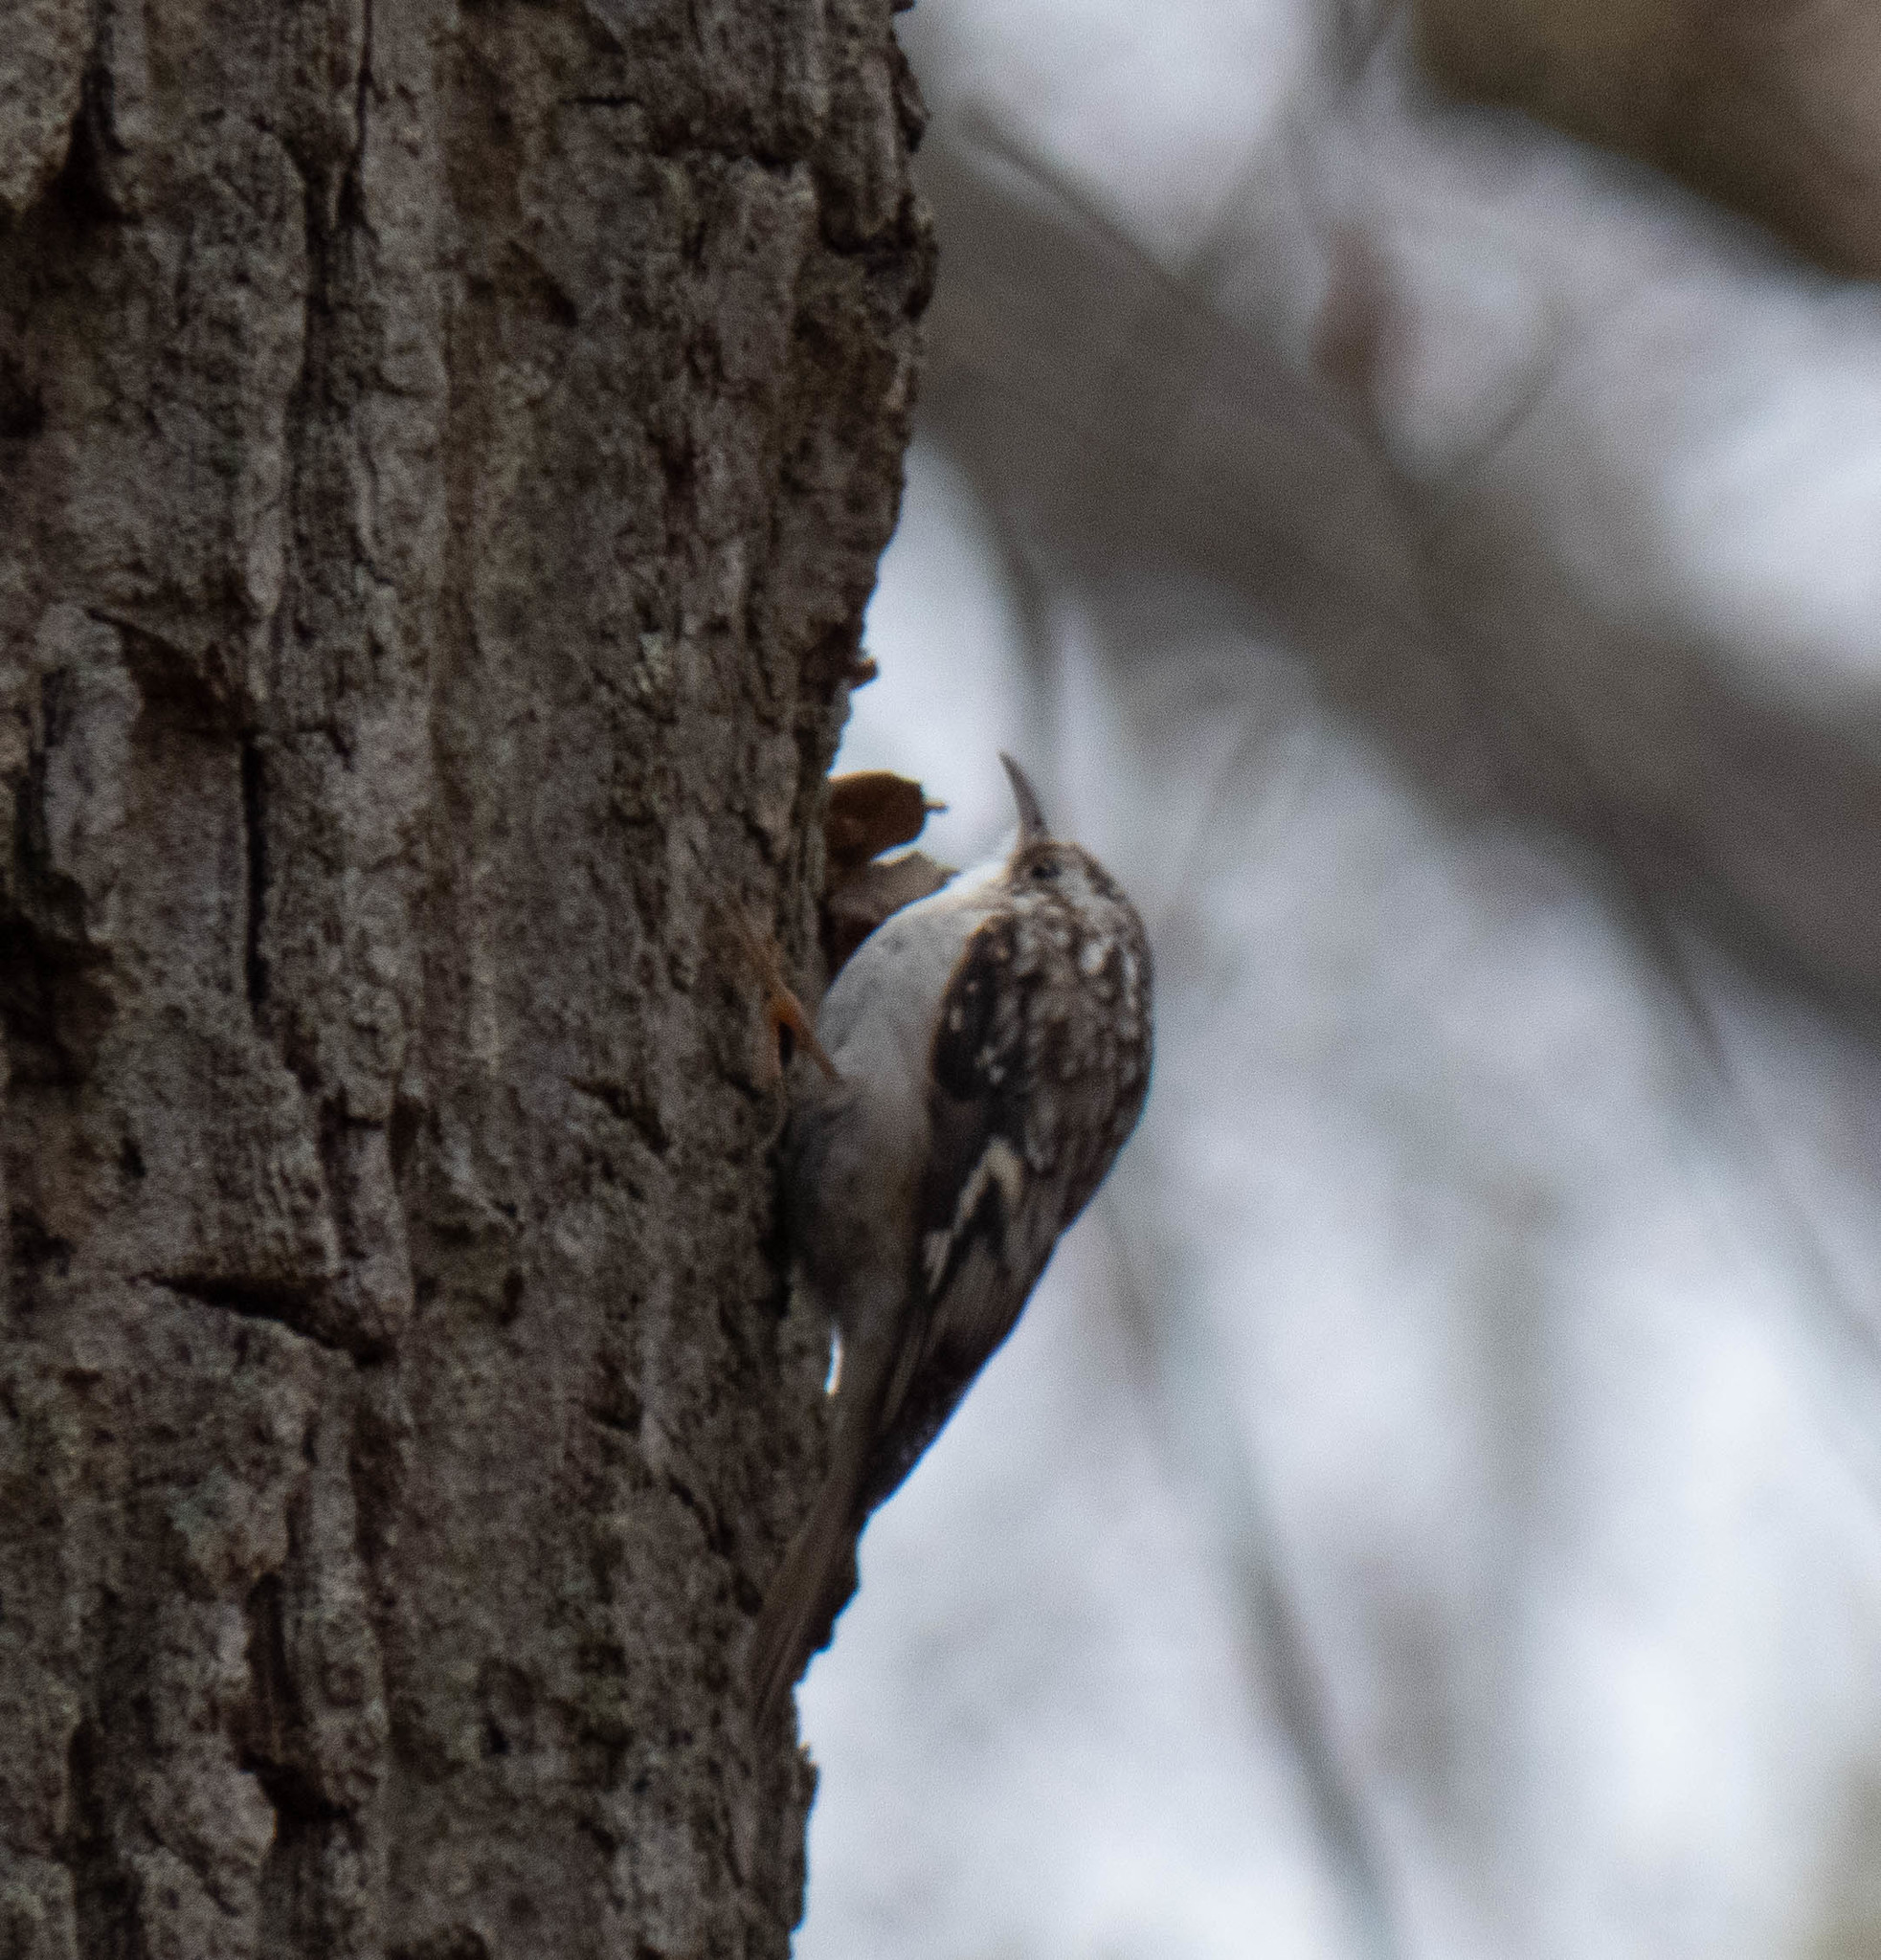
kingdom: Animalia
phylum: Chordata
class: Aves
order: Passeriformes
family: Certhiidae
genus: Certhia
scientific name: Certhia americana
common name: Brown creeper
